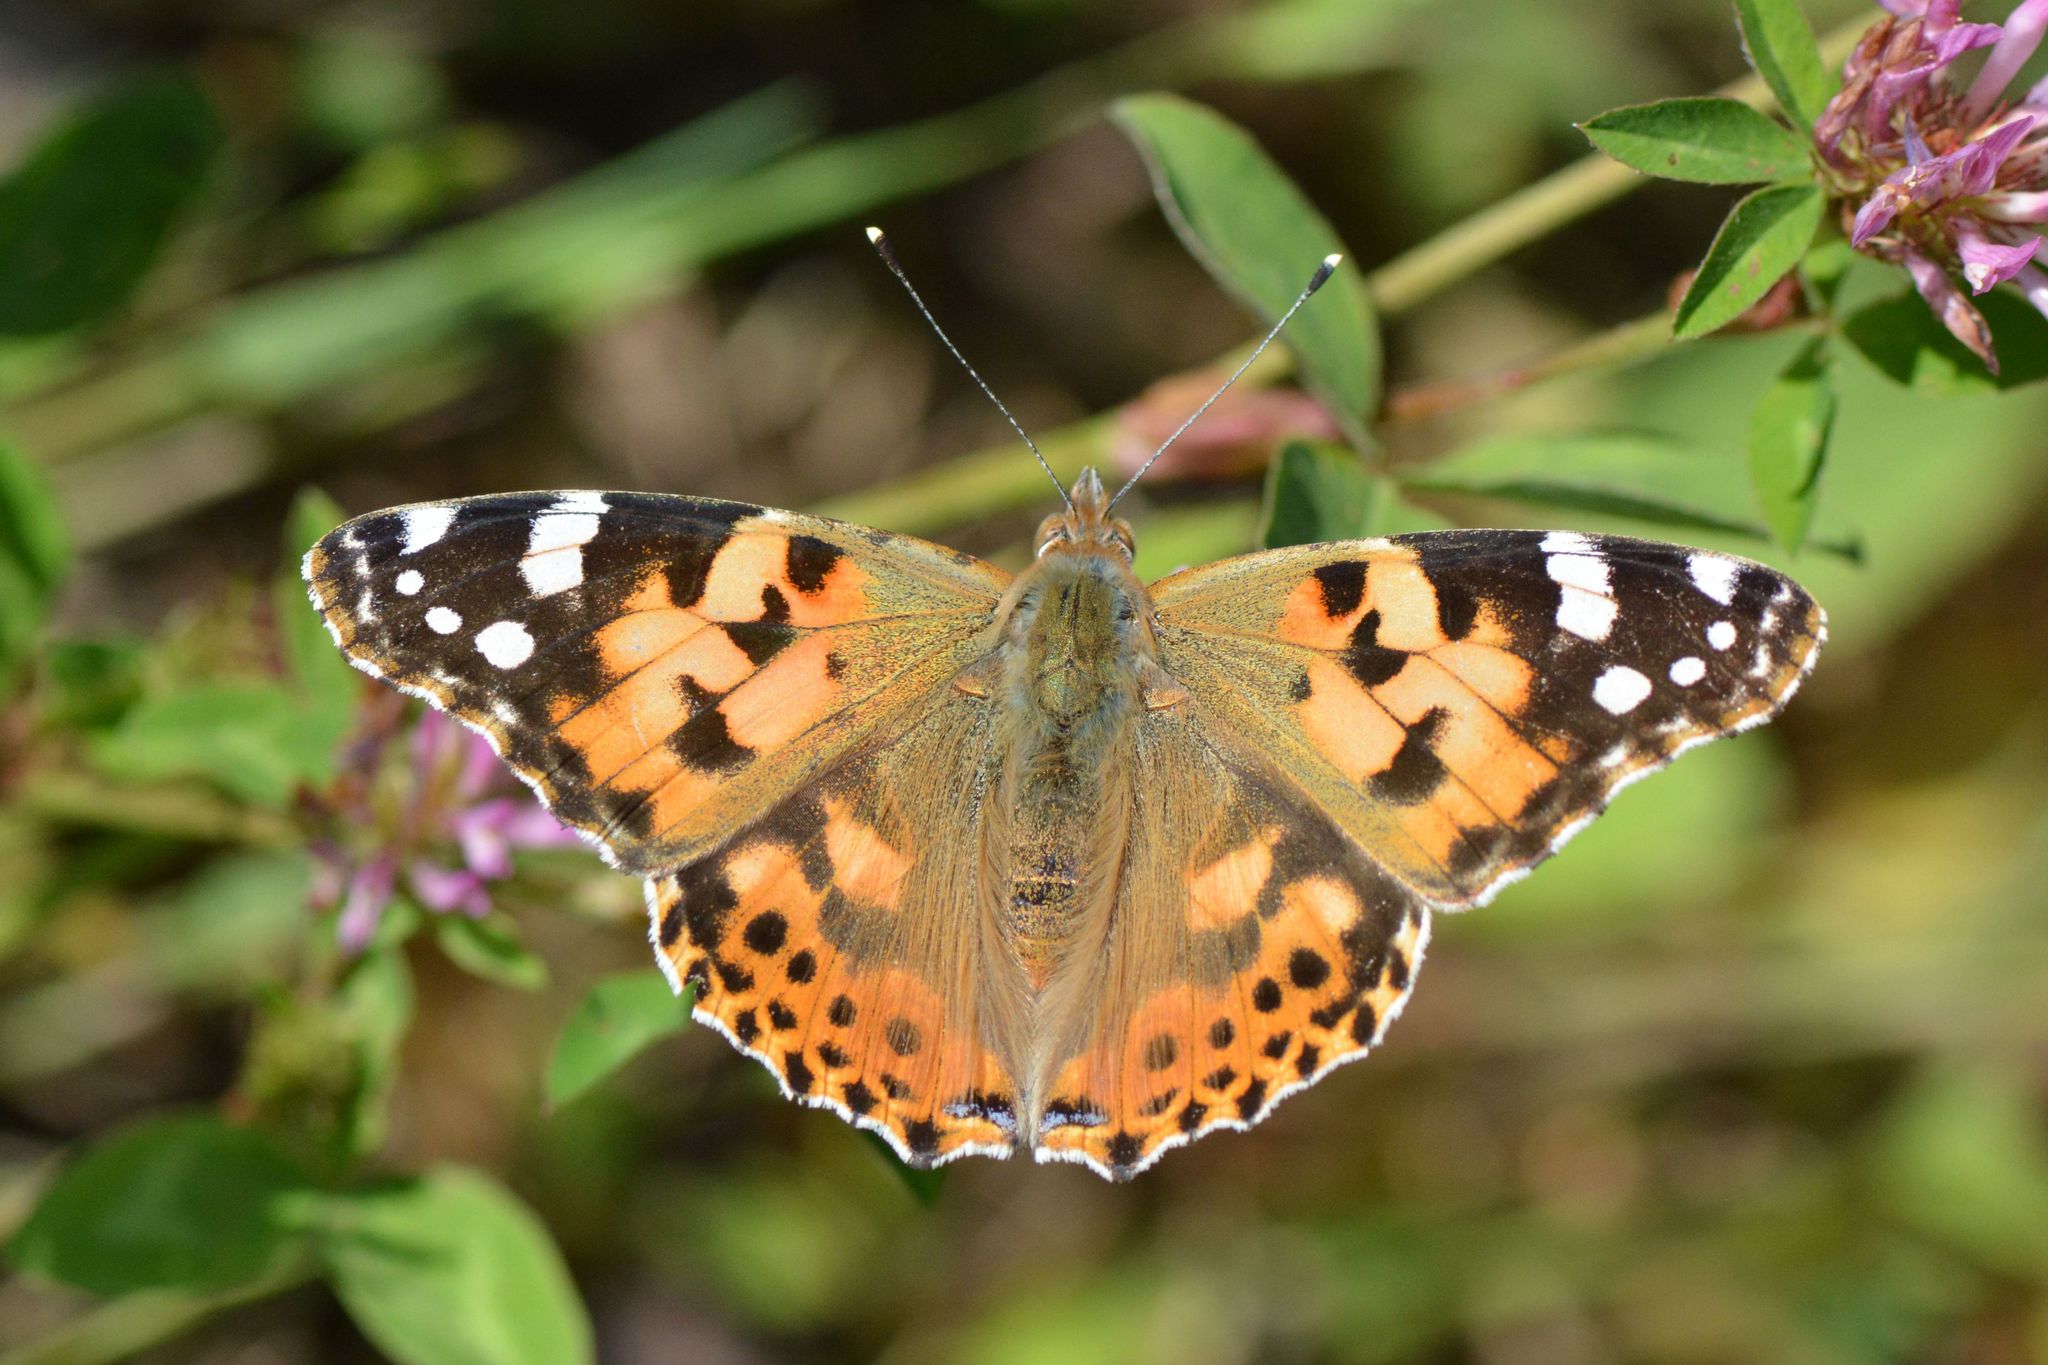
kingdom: Animalia
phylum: Arthropoda
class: Insecta
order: Lepidoptera
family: Nymphalidae
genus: Vanessa
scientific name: Vanessa cardui
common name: Painted lady
